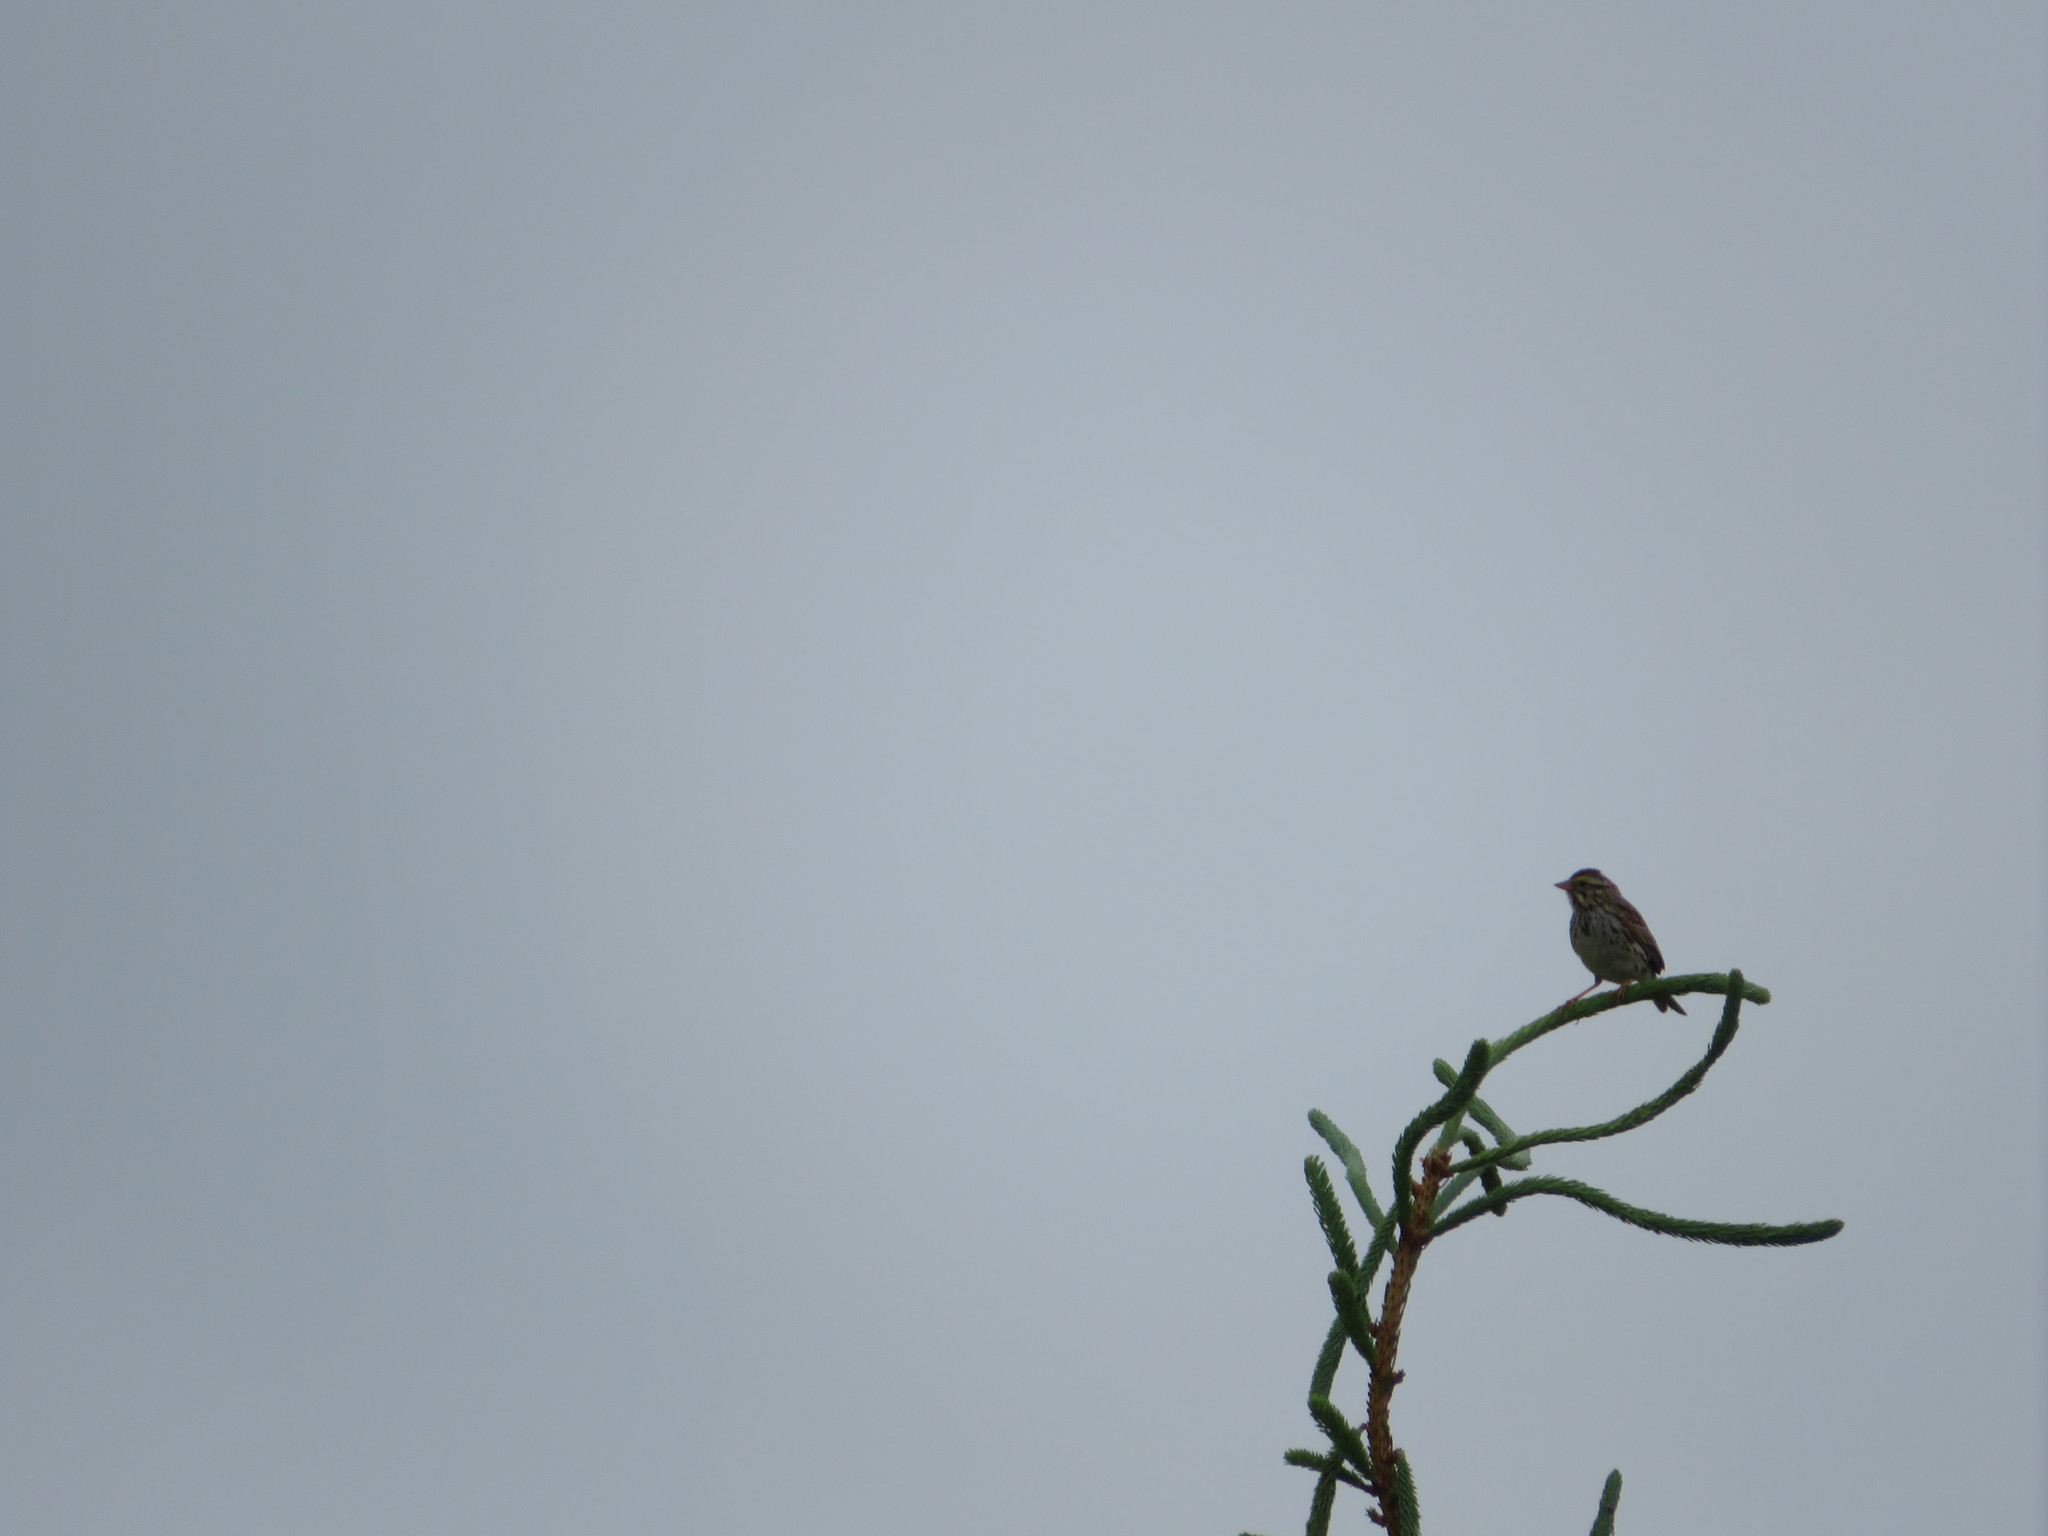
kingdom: Animalia
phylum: Chordata
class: Aves
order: Passeriformes
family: Passerellidae
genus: Melospiza
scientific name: Melospiza melodia
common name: Song sparrow
